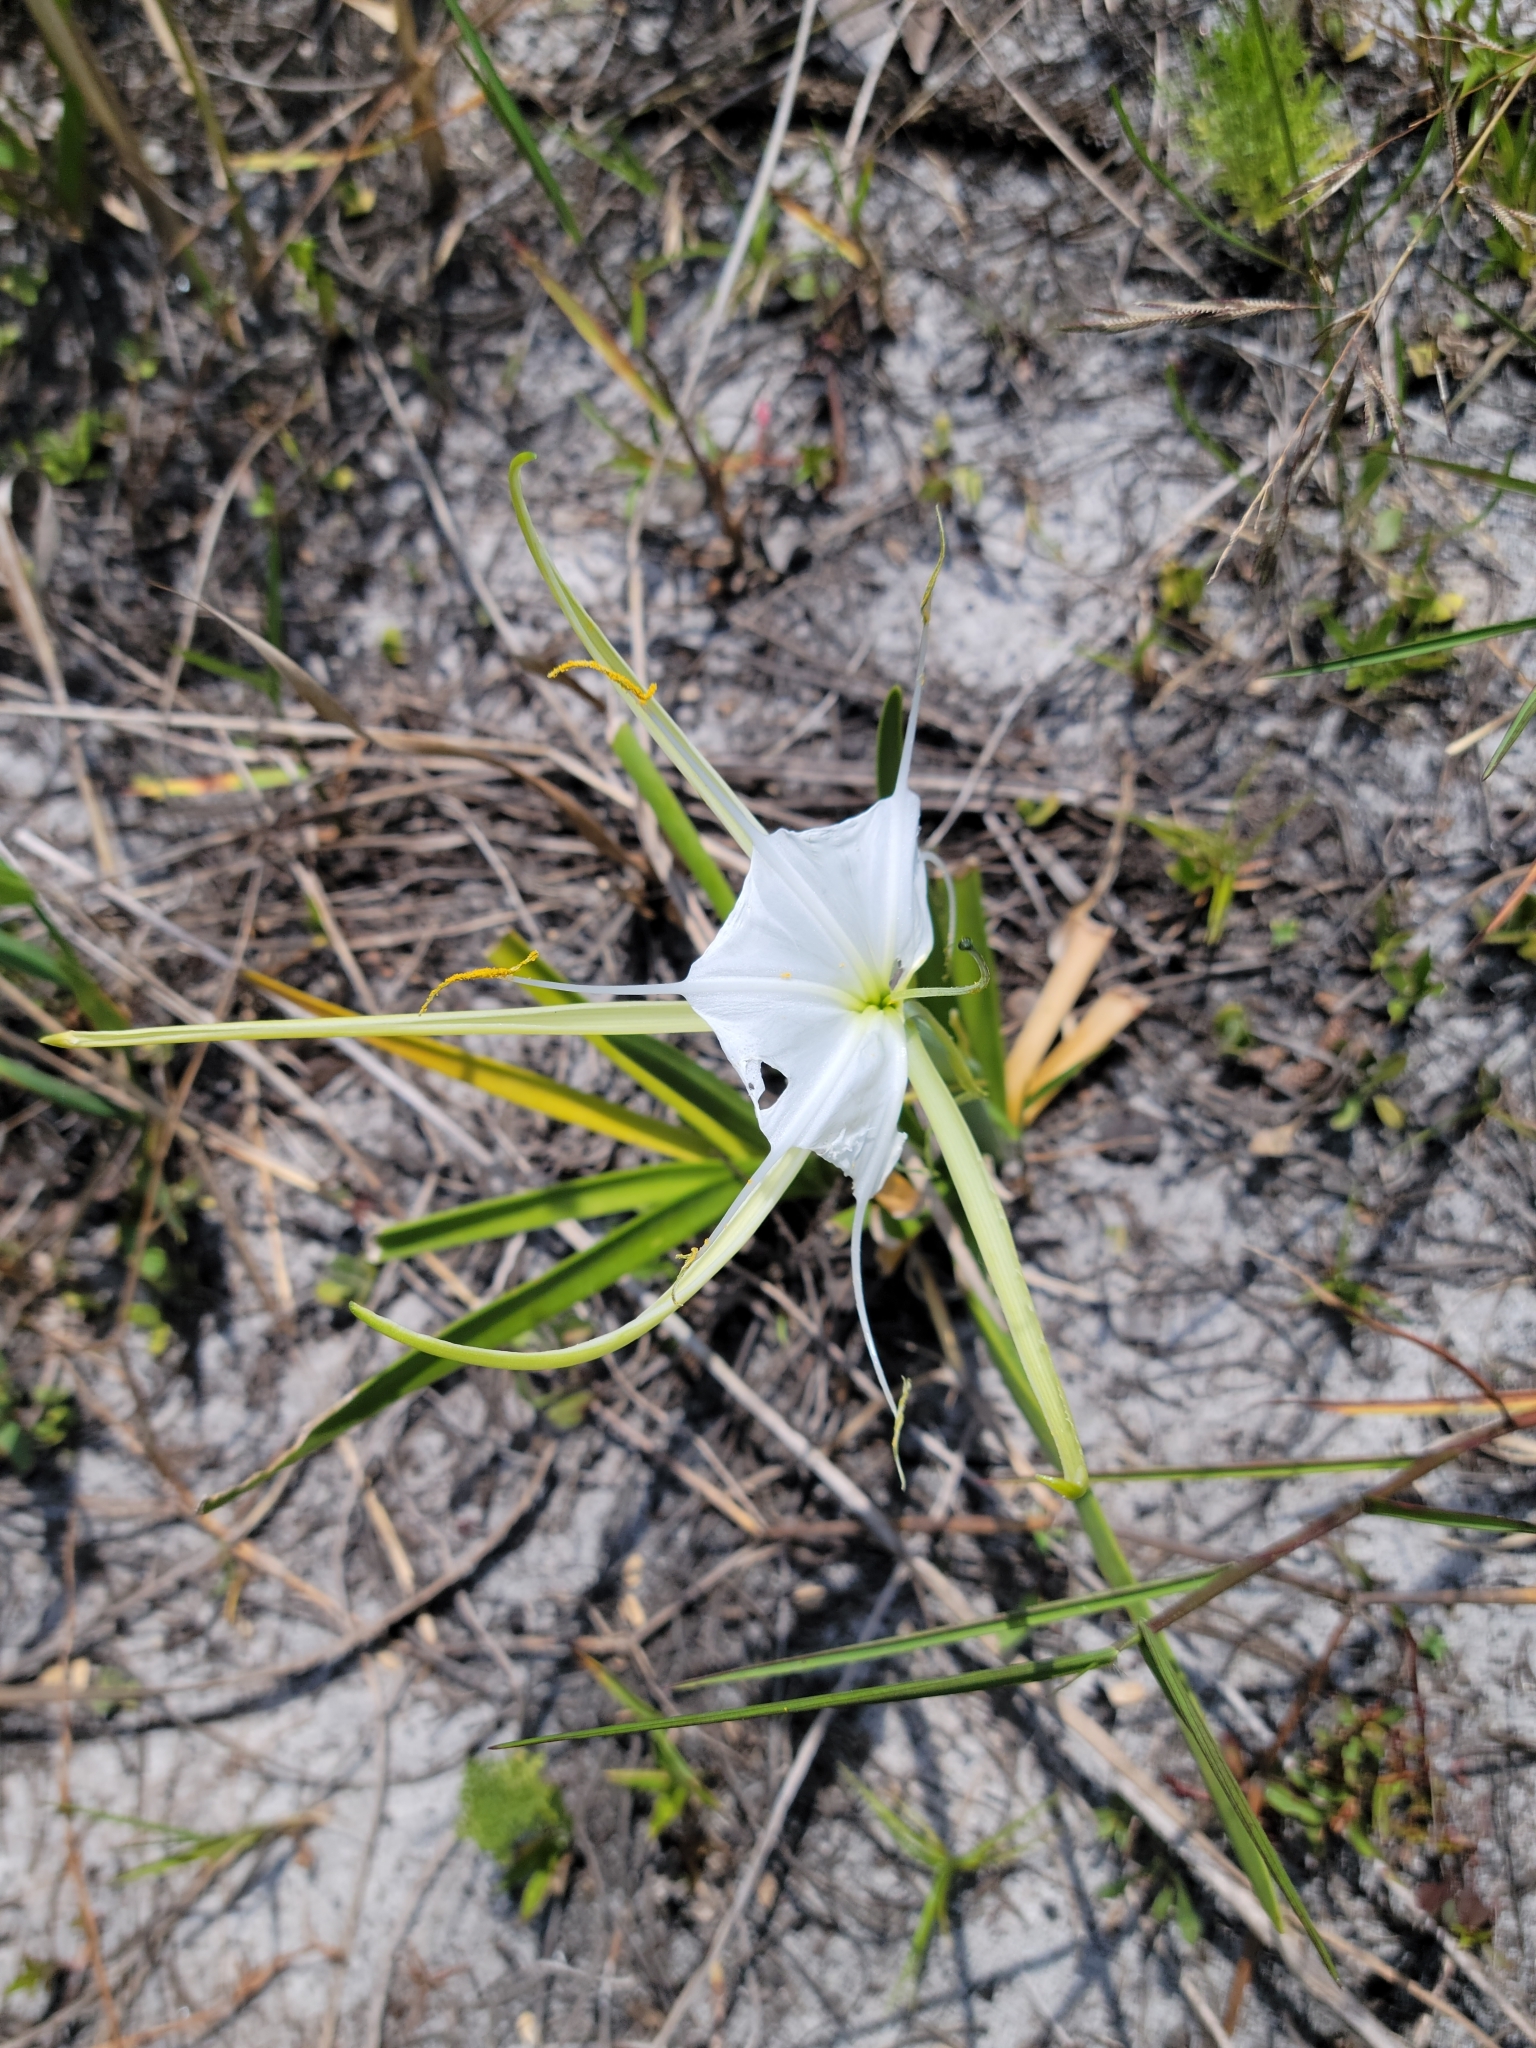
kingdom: Plantae
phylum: Tracheophyta
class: Liliopsida
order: Asparagales
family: Amaryllidaceae
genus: Hymenocallis
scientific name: Hymenocallis palmeri
